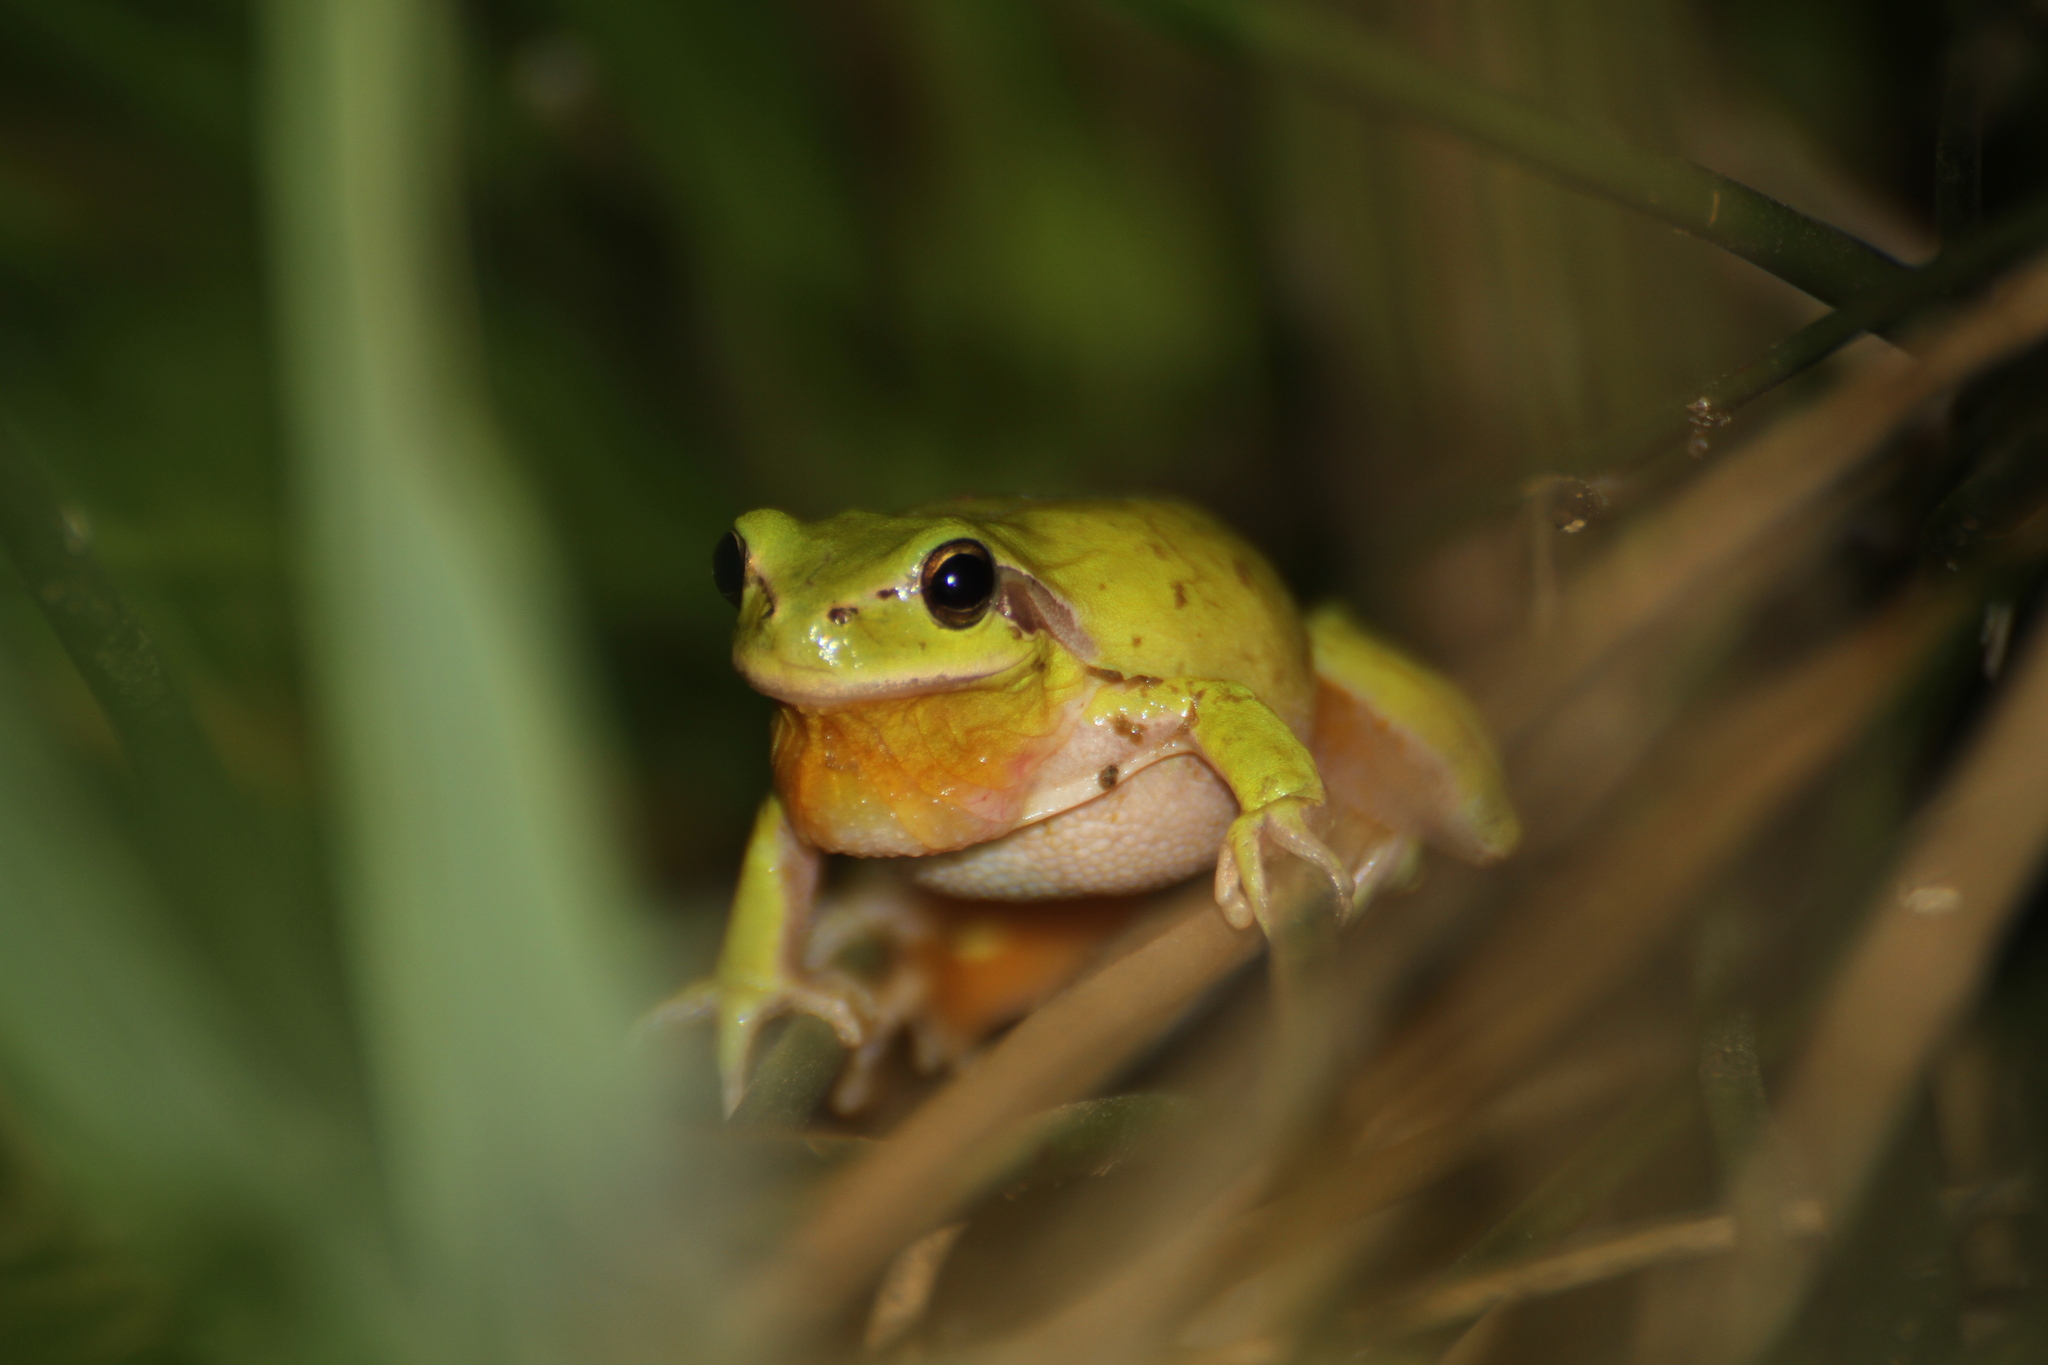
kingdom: Animalia
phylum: Chordata
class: Amphibia
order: Anura
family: Hylidae
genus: Hyla
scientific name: Hyla meridionalis
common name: Stripeless tree frog
